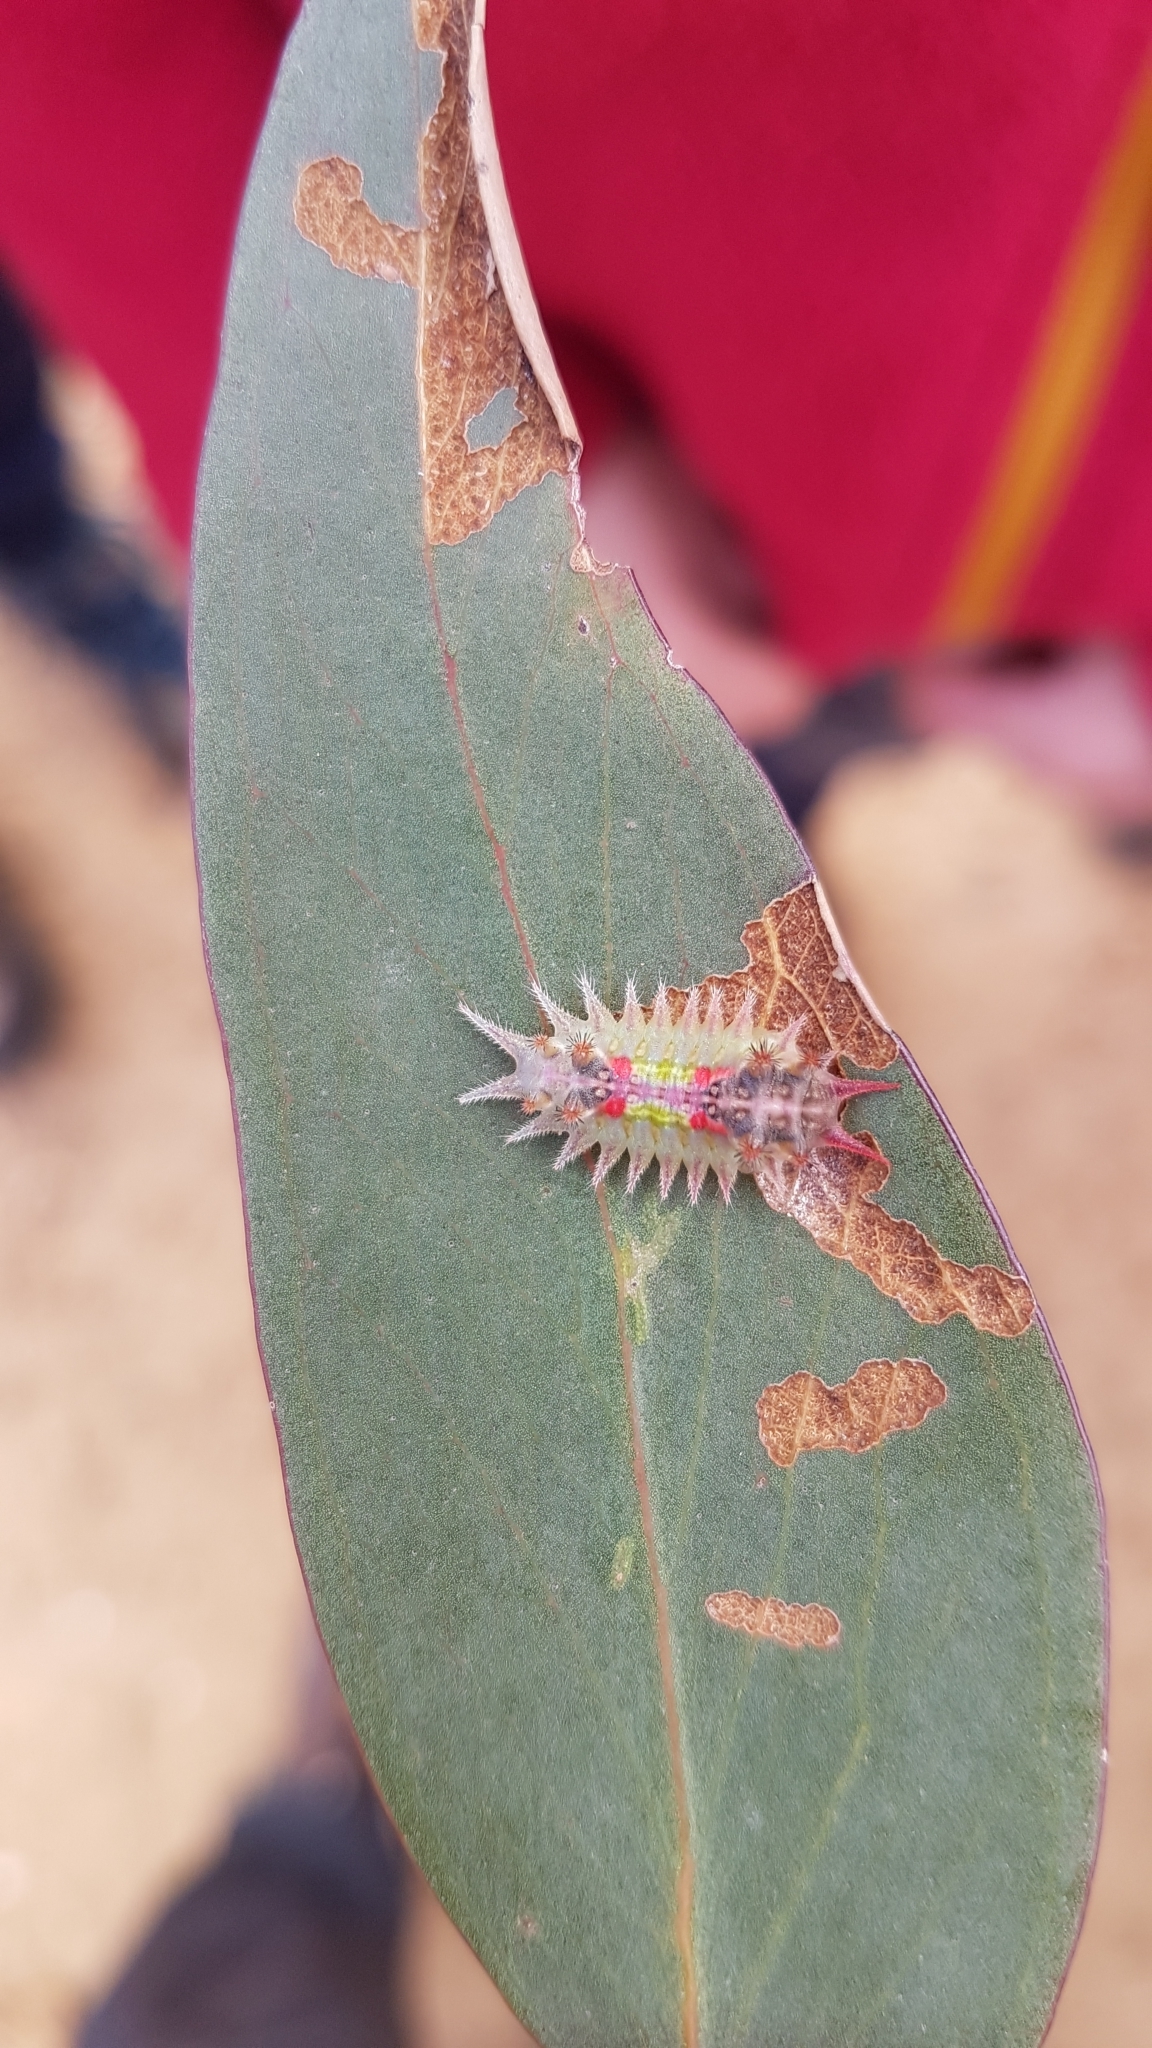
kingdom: Animalia
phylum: Arthropoda
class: Insecta
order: Lepidoptera
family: Limacodidae
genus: Doratifera
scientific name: Doratifera oxleyi
